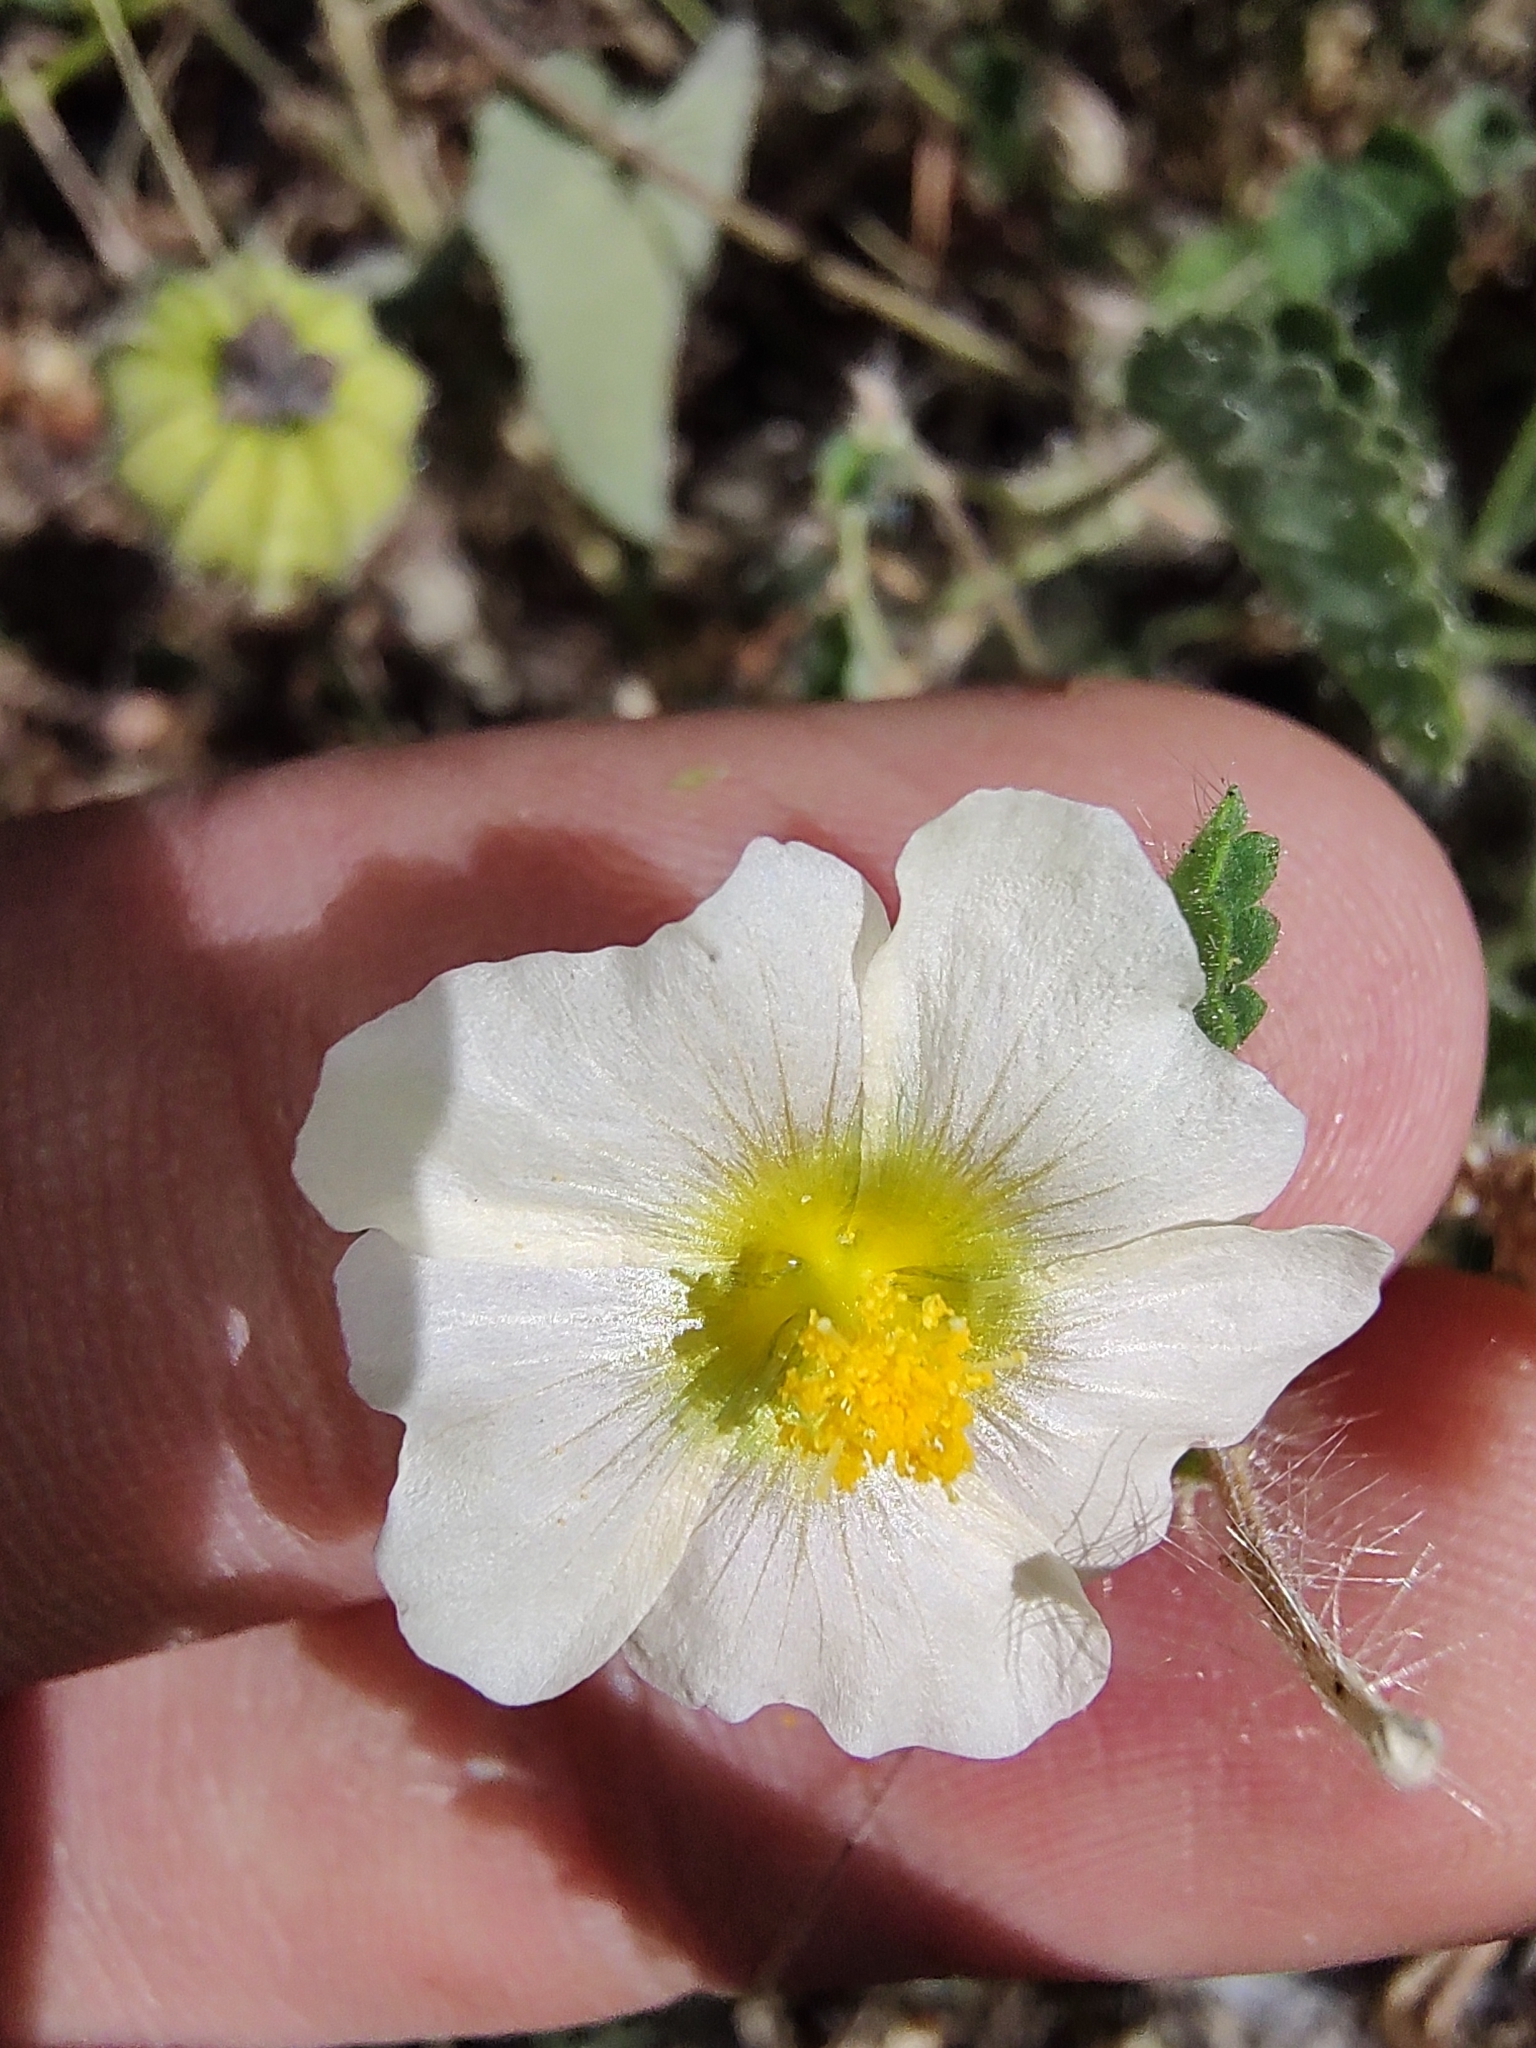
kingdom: Plantae
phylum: Tracheophyta
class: Magnoliopsida
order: Malvales
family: Malvaceae
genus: Herissantia
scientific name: Herissantia crispa
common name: Bladdermallow
